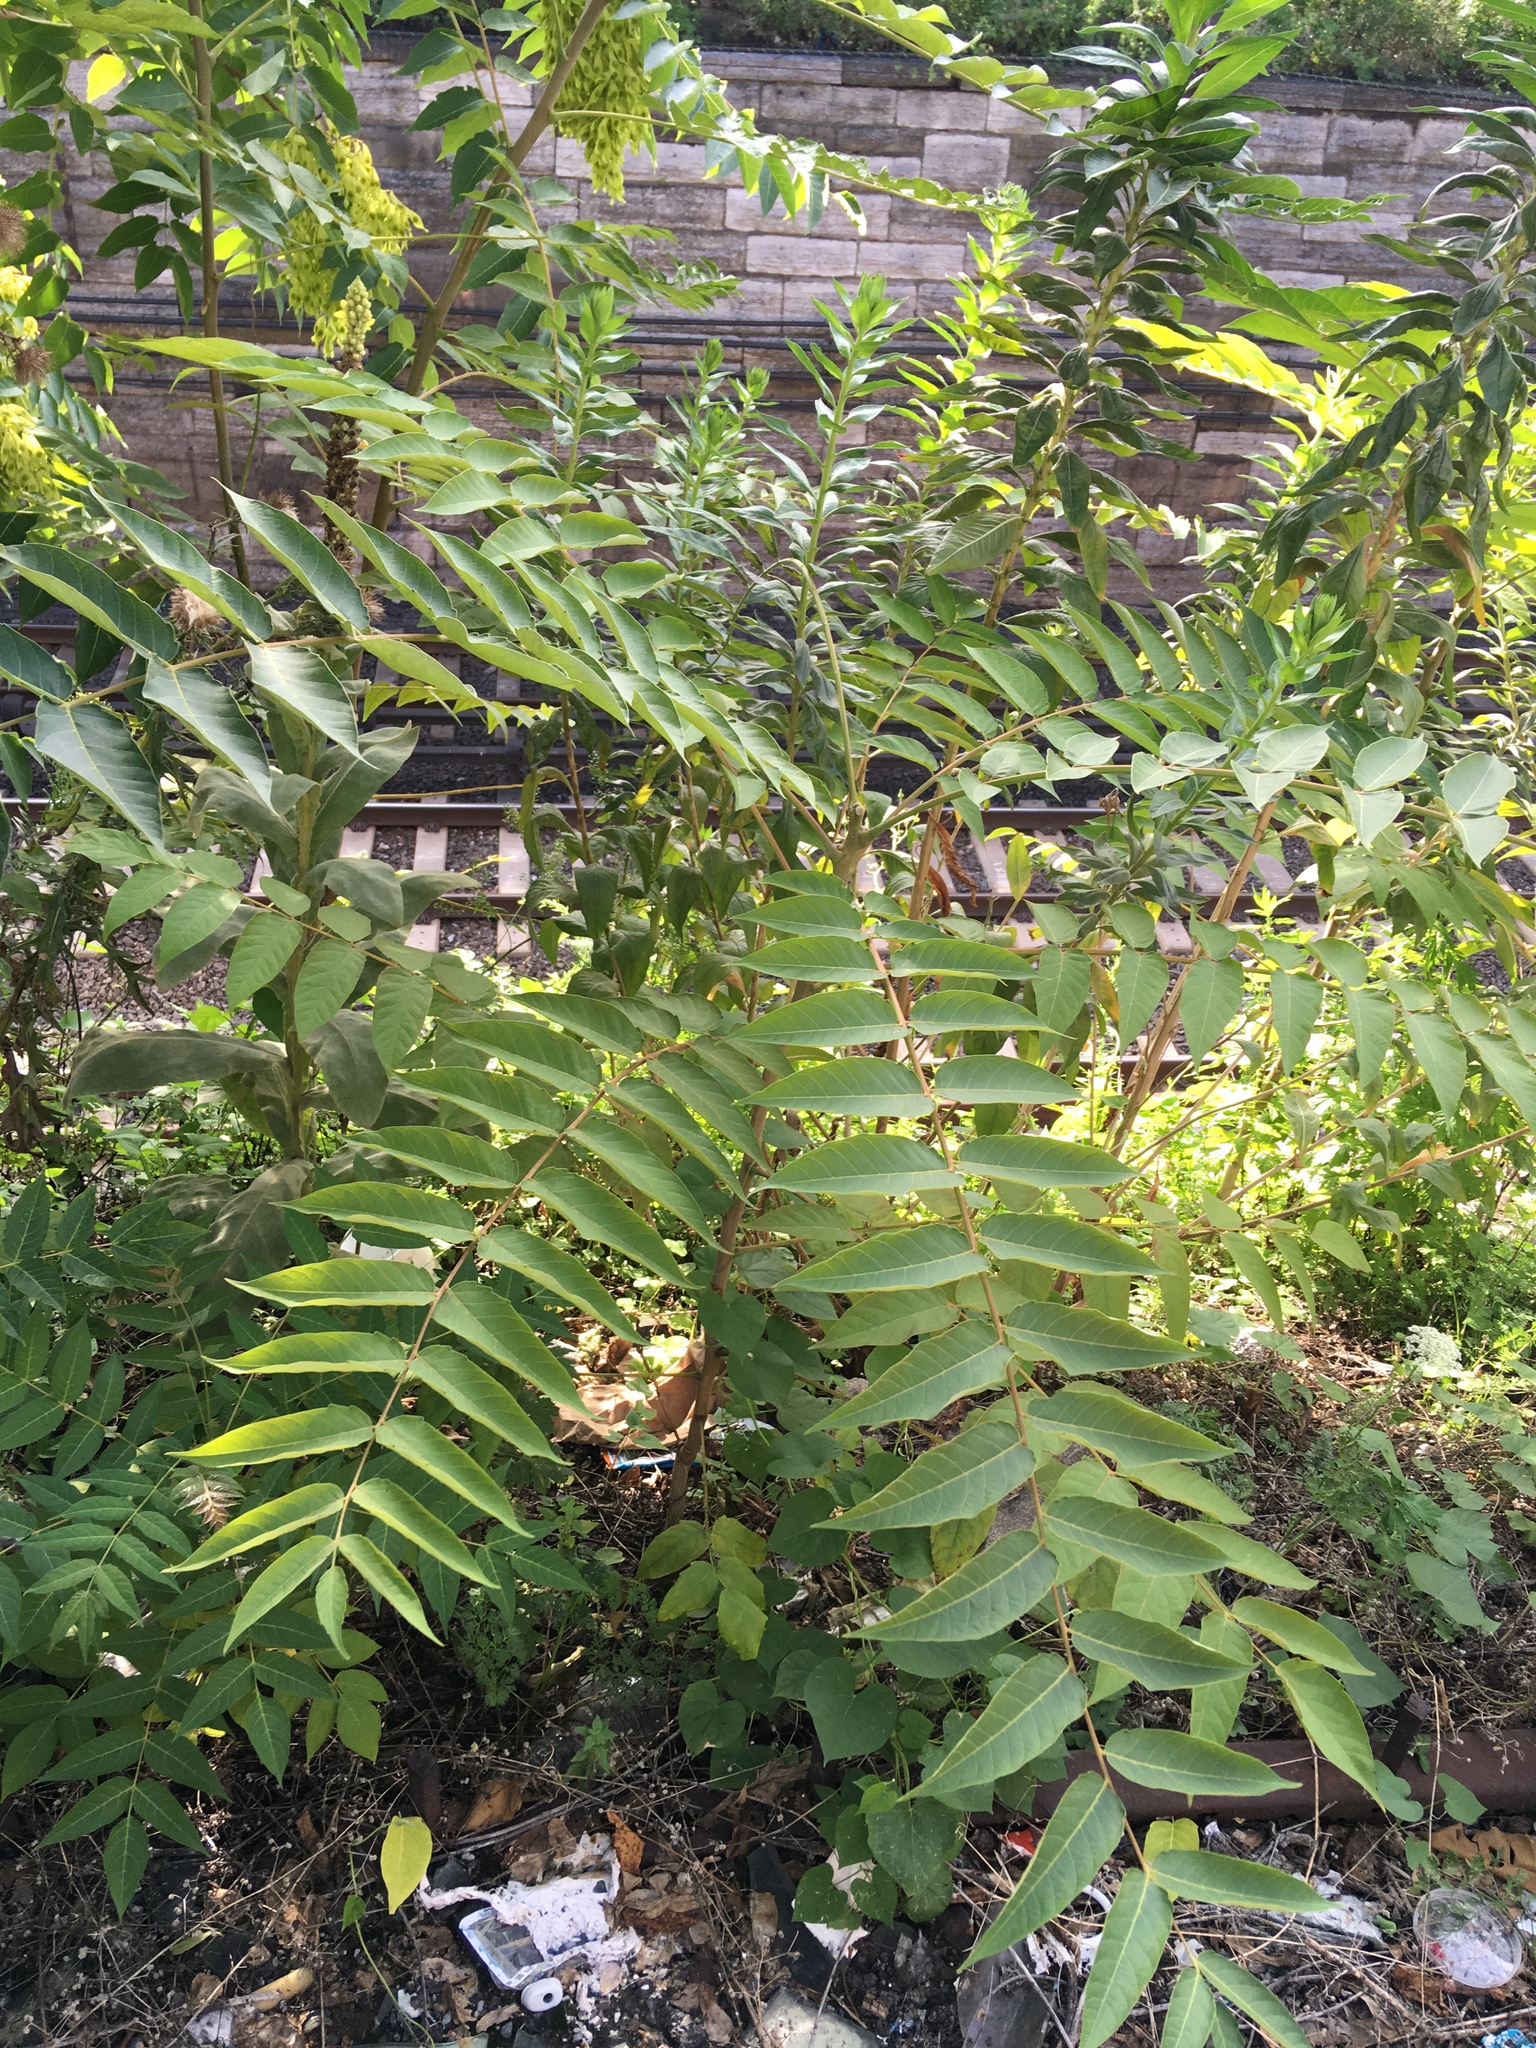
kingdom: Plantae
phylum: Tracheophyta
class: Magnoliopsida
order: Sapindales
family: Simaroubaceae
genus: Ailanthus
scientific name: Ailanthus altissima
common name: Tree-of-heaven
